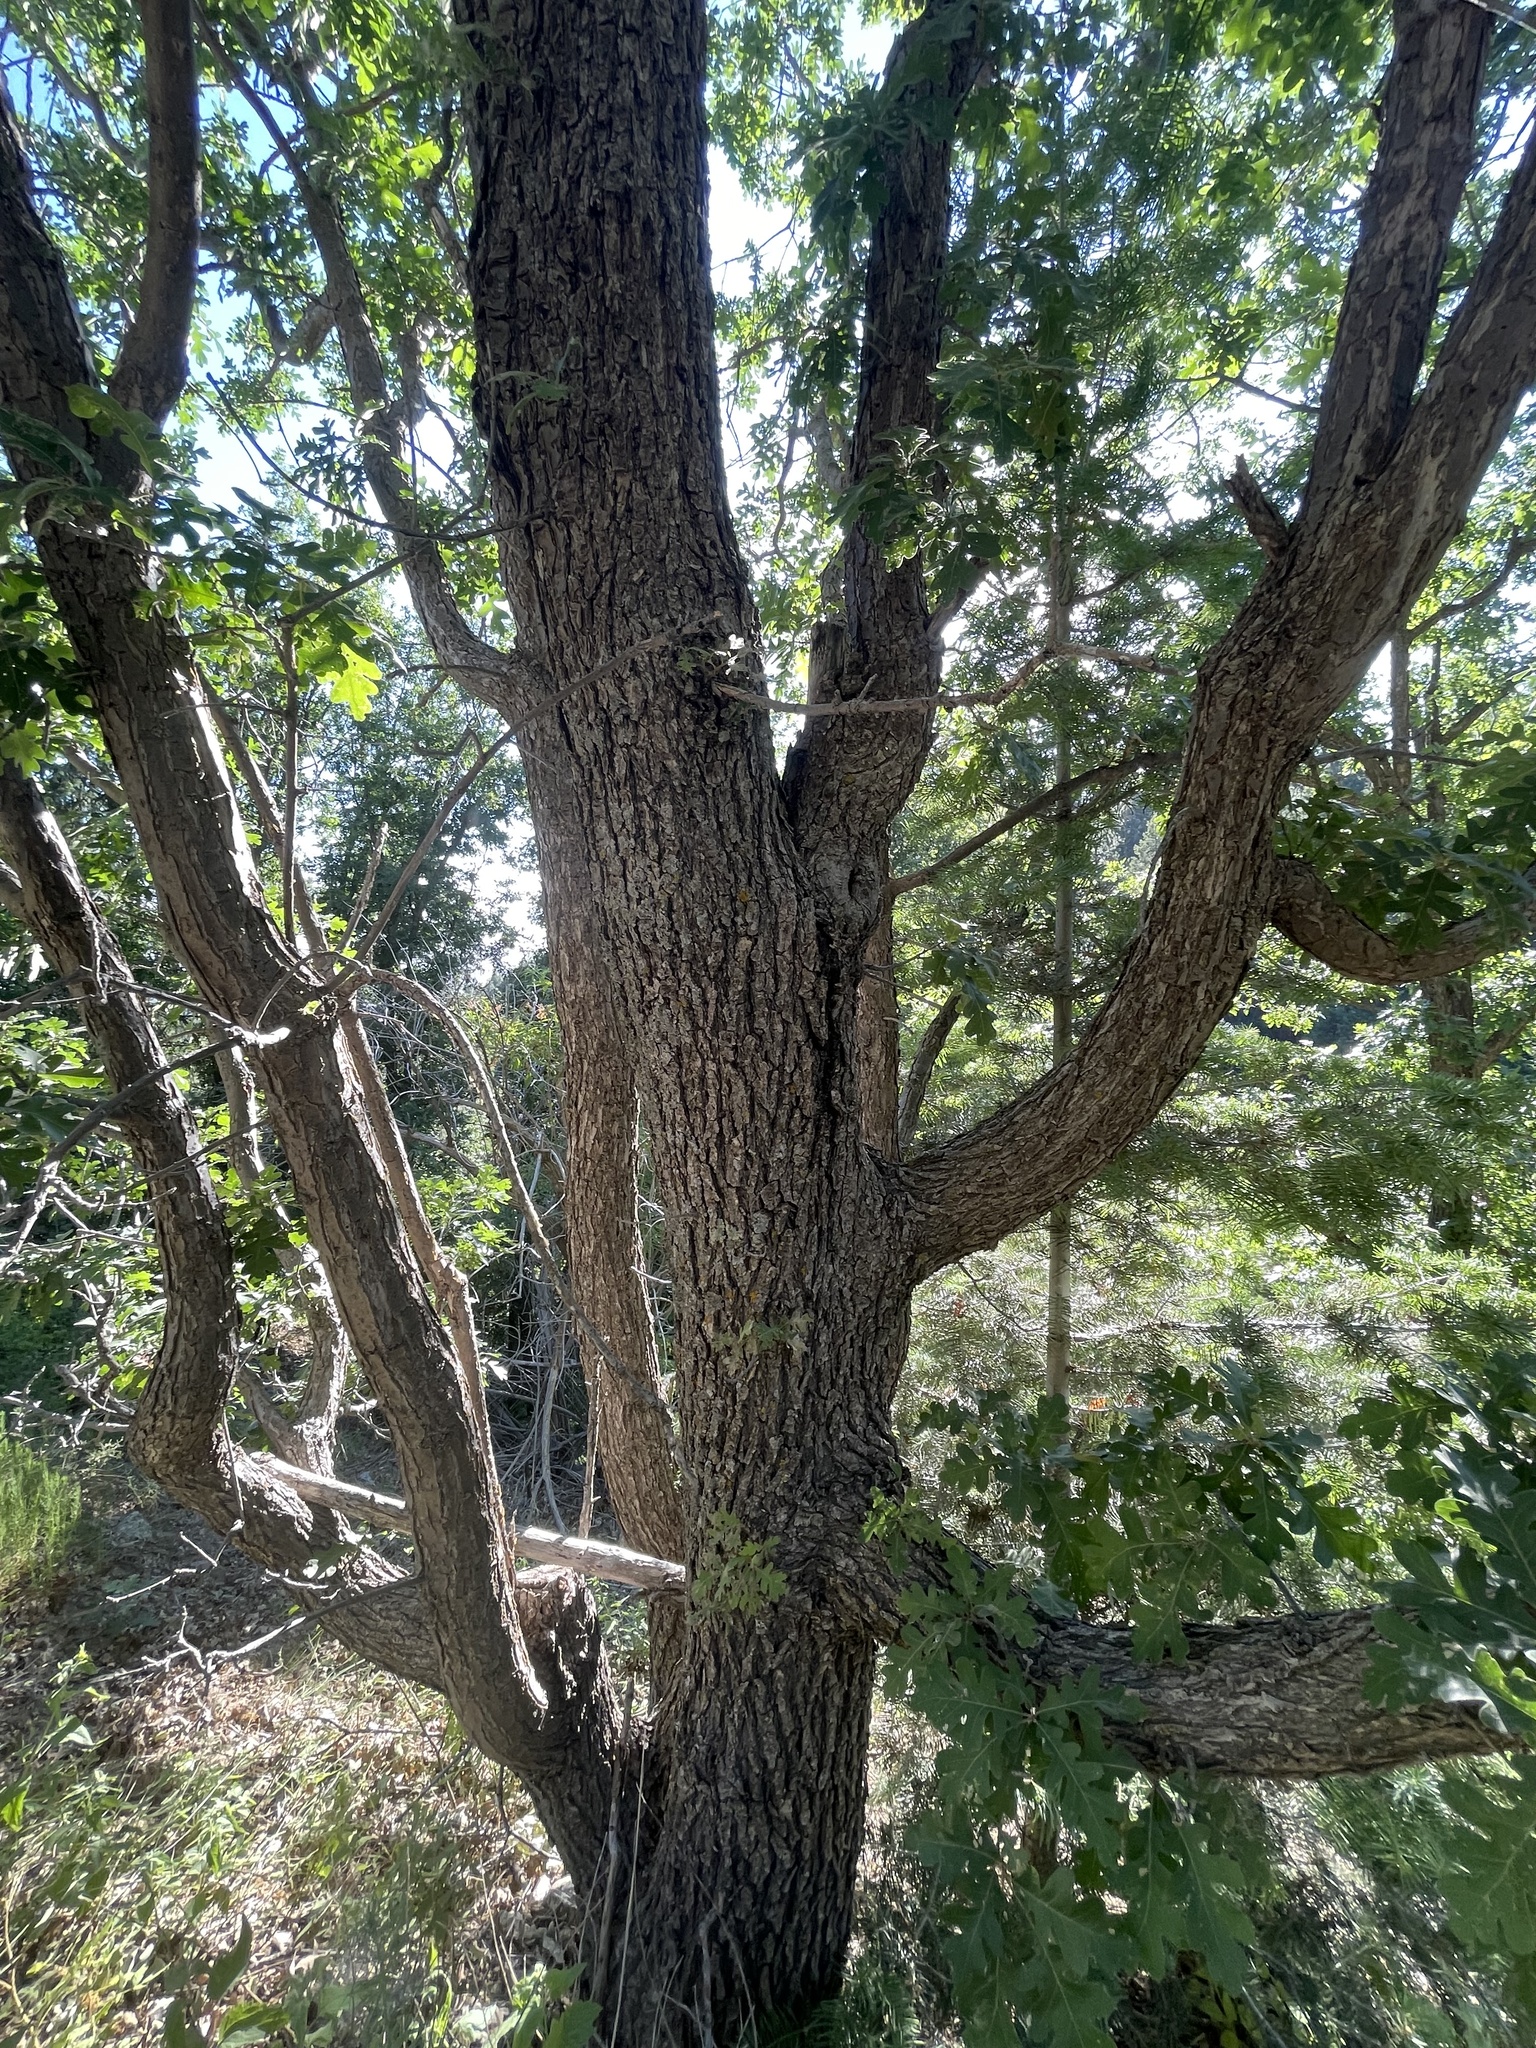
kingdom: Plantae
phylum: Tracheophyta
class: Magnoliopsida
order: Fagales
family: Fagaceae
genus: Quercus
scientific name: Quercus gambelii
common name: Gambel oak
